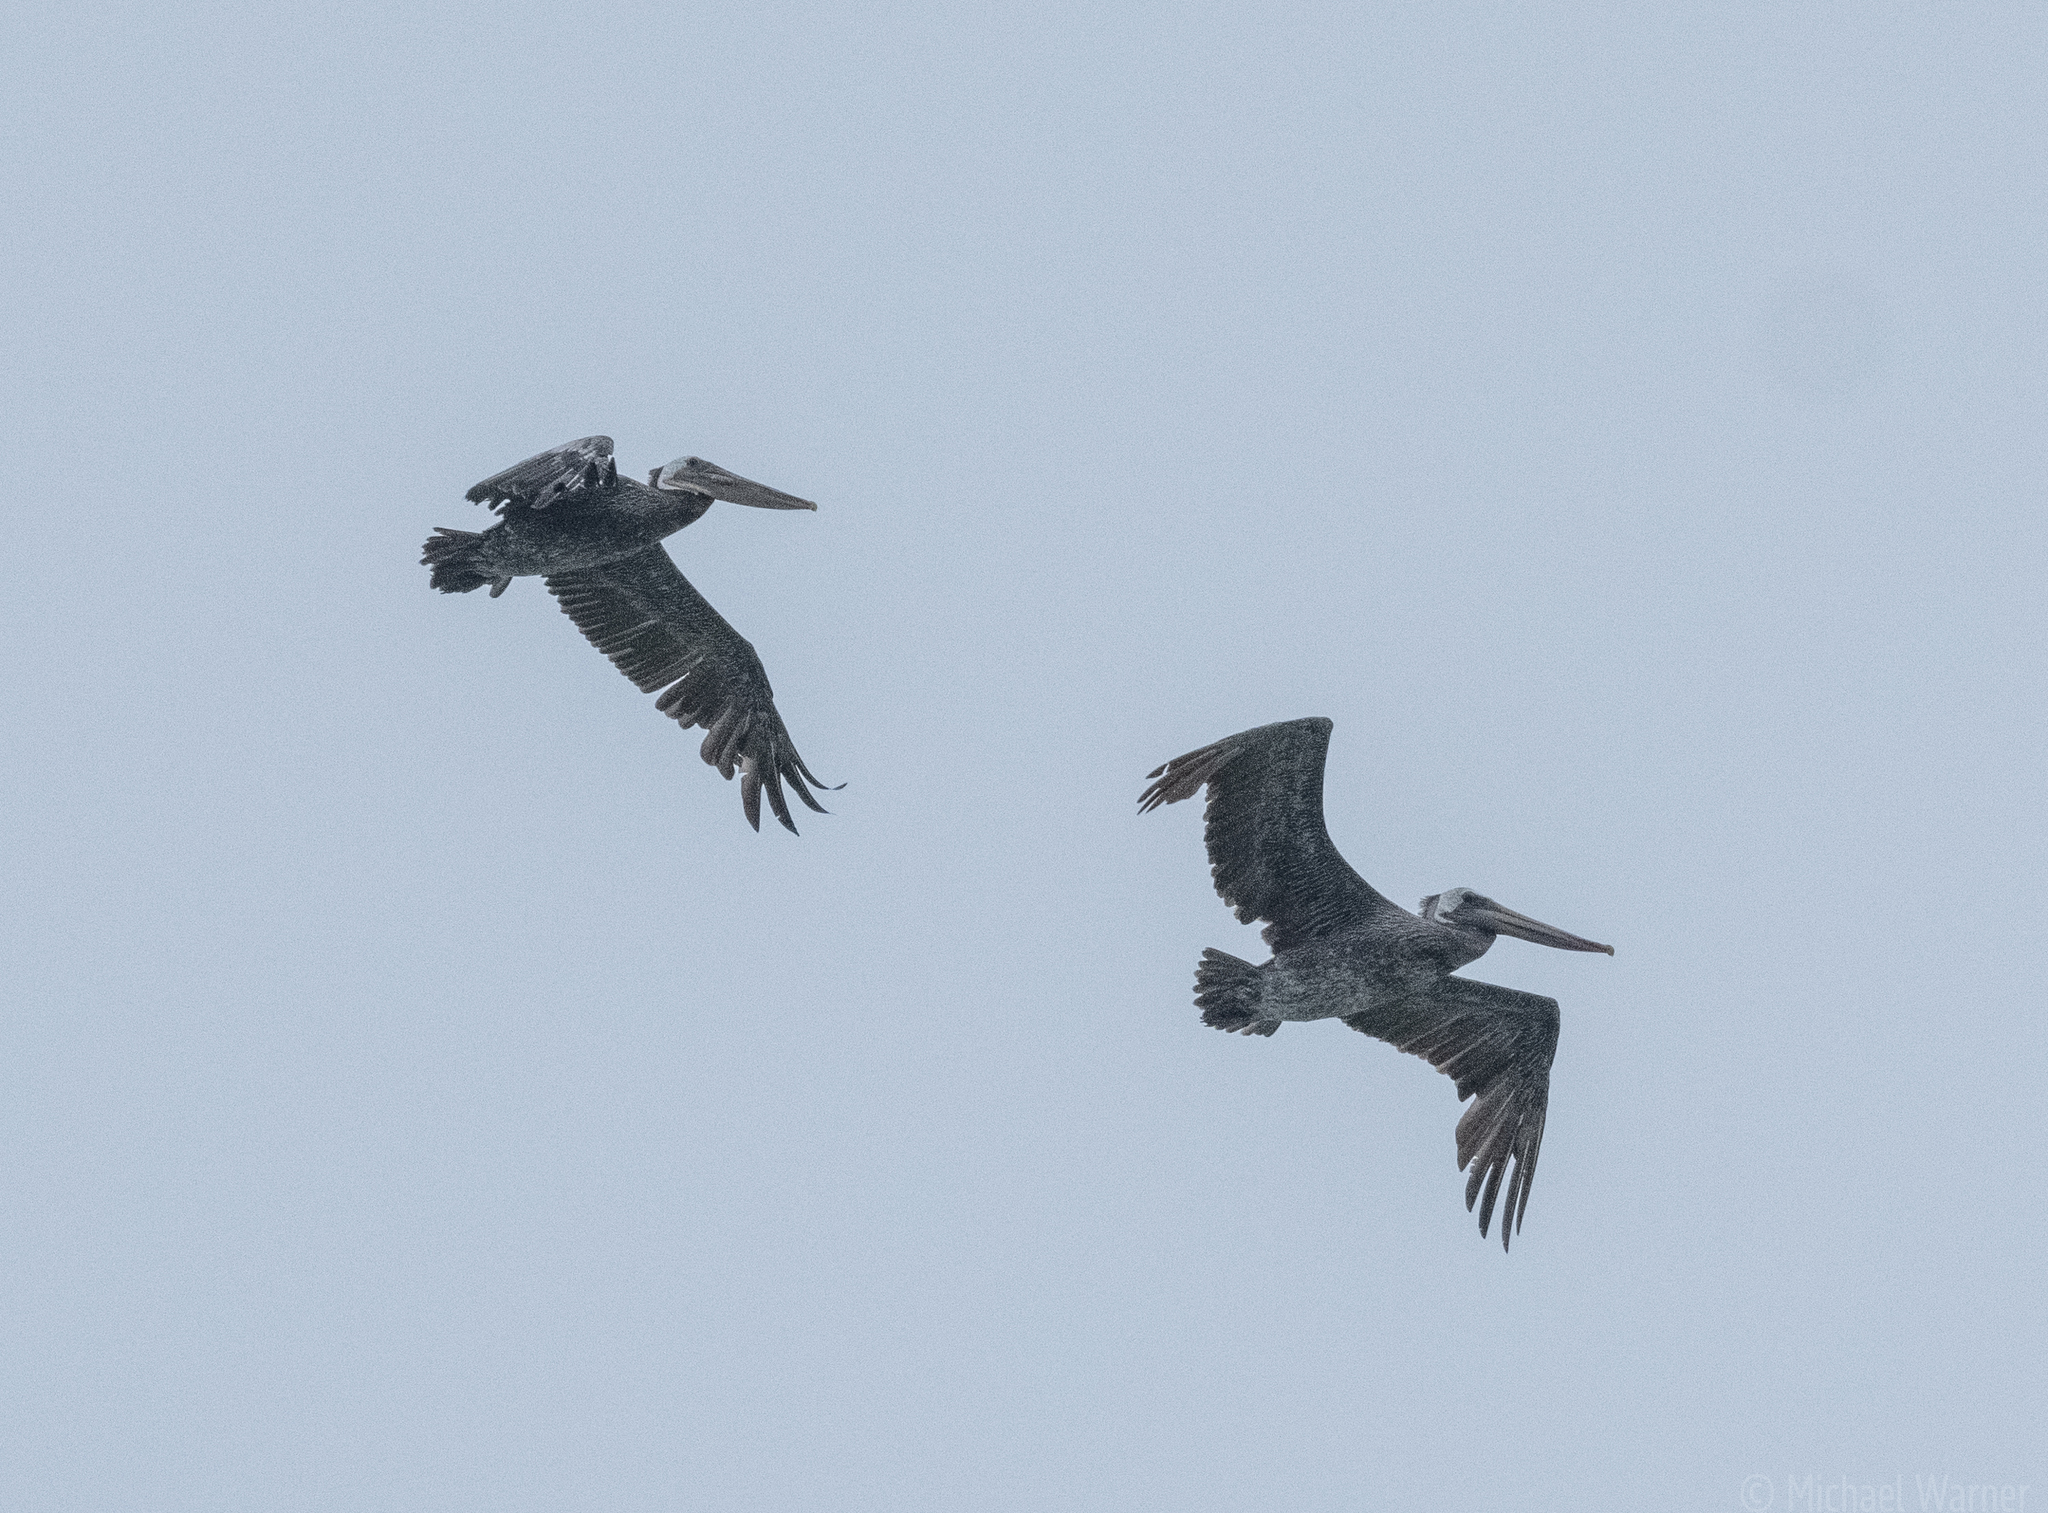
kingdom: Animalia
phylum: Chordata
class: Aves
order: Pelecaniformes
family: Pelecanidae
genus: Pelecanus
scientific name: Pelecanus occidentalis
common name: Brown pelican
